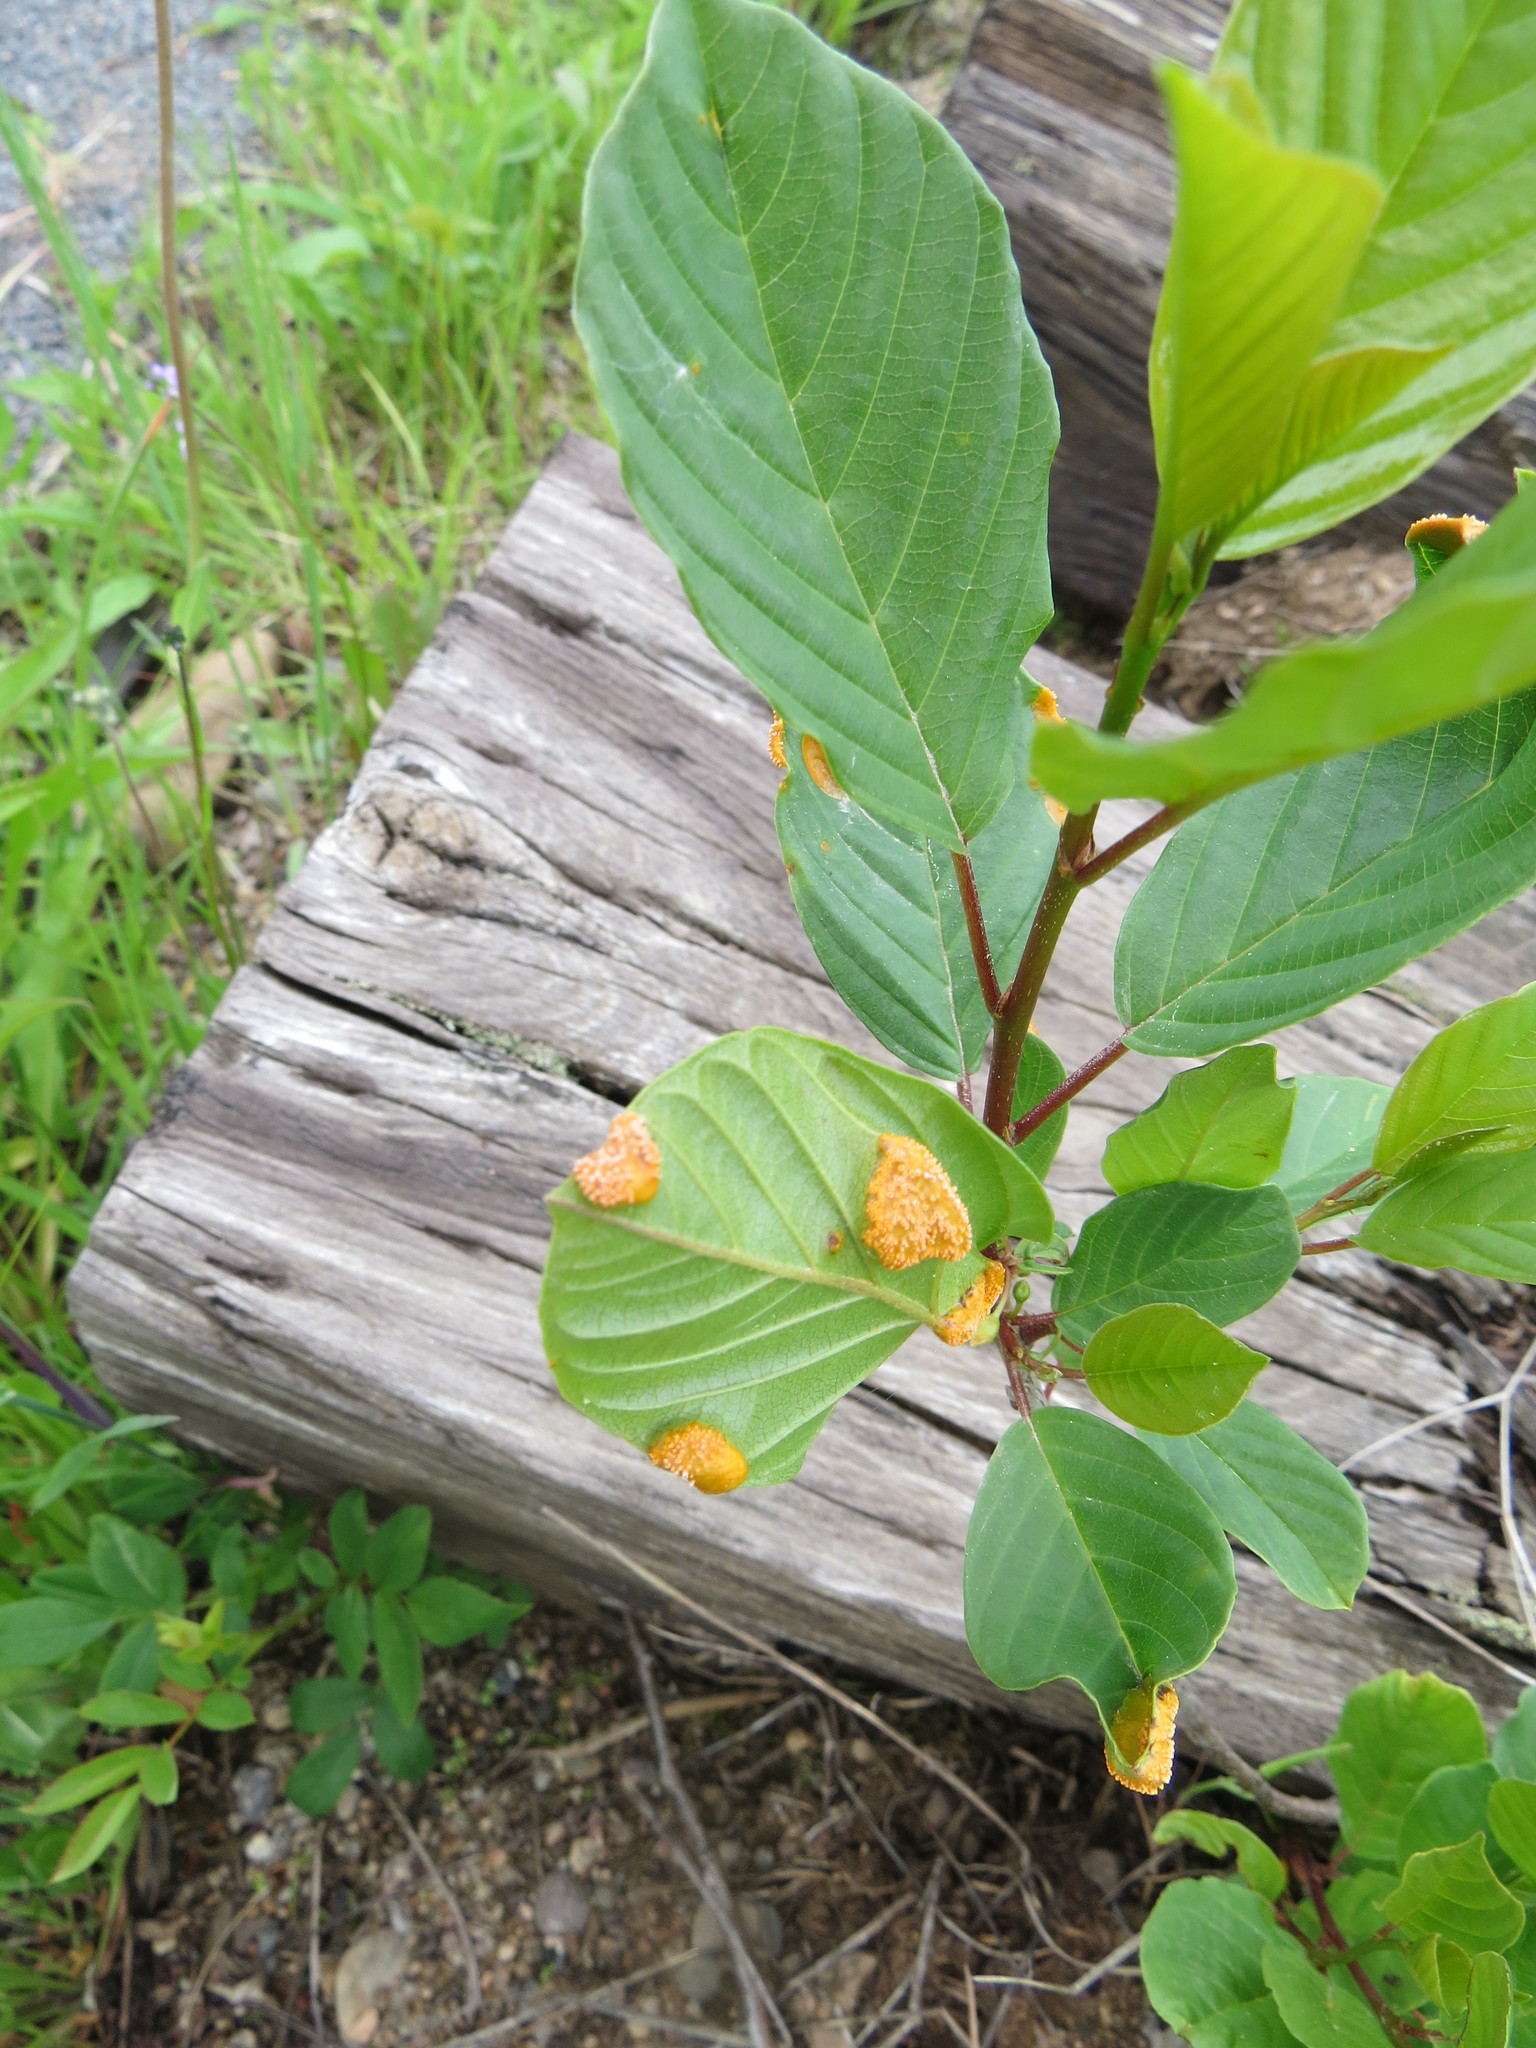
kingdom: Fungi
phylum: Basidiomycota
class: Pucciniomycetes
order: Pucciniales
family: Pucciniaceae
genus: Puccinia
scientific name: Puccinia coronata
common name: Crown rust
